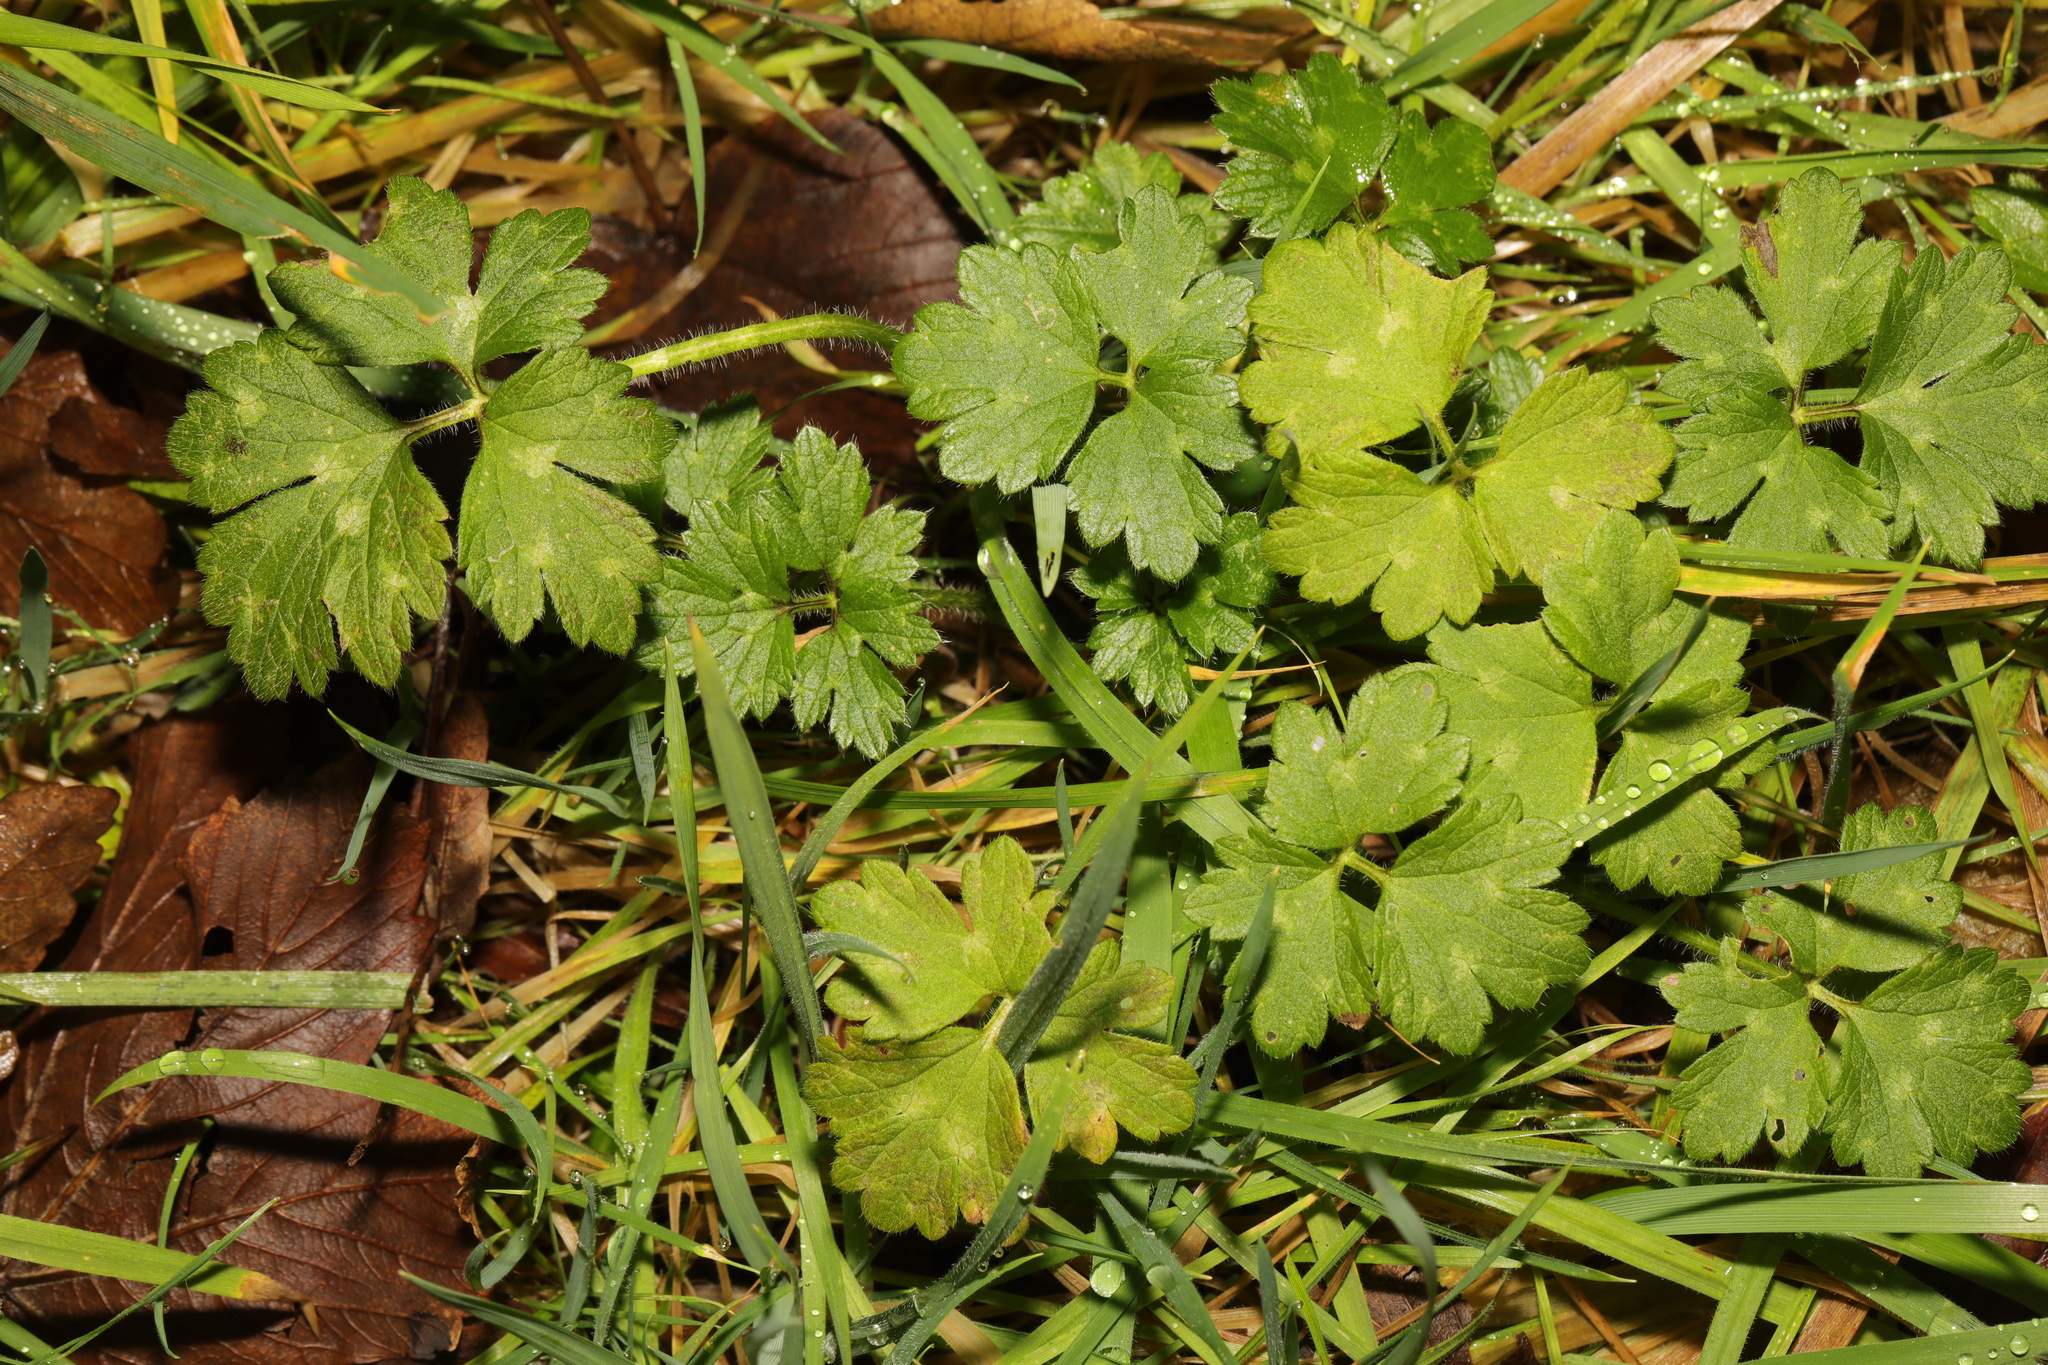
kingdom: Plantae
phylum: Tracheophyta
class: Magnoliopsida
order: Ranunculales
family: Ranunculaceae
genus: Ranunculus
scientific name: Ranunculus repens
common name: Creeping buttercup
